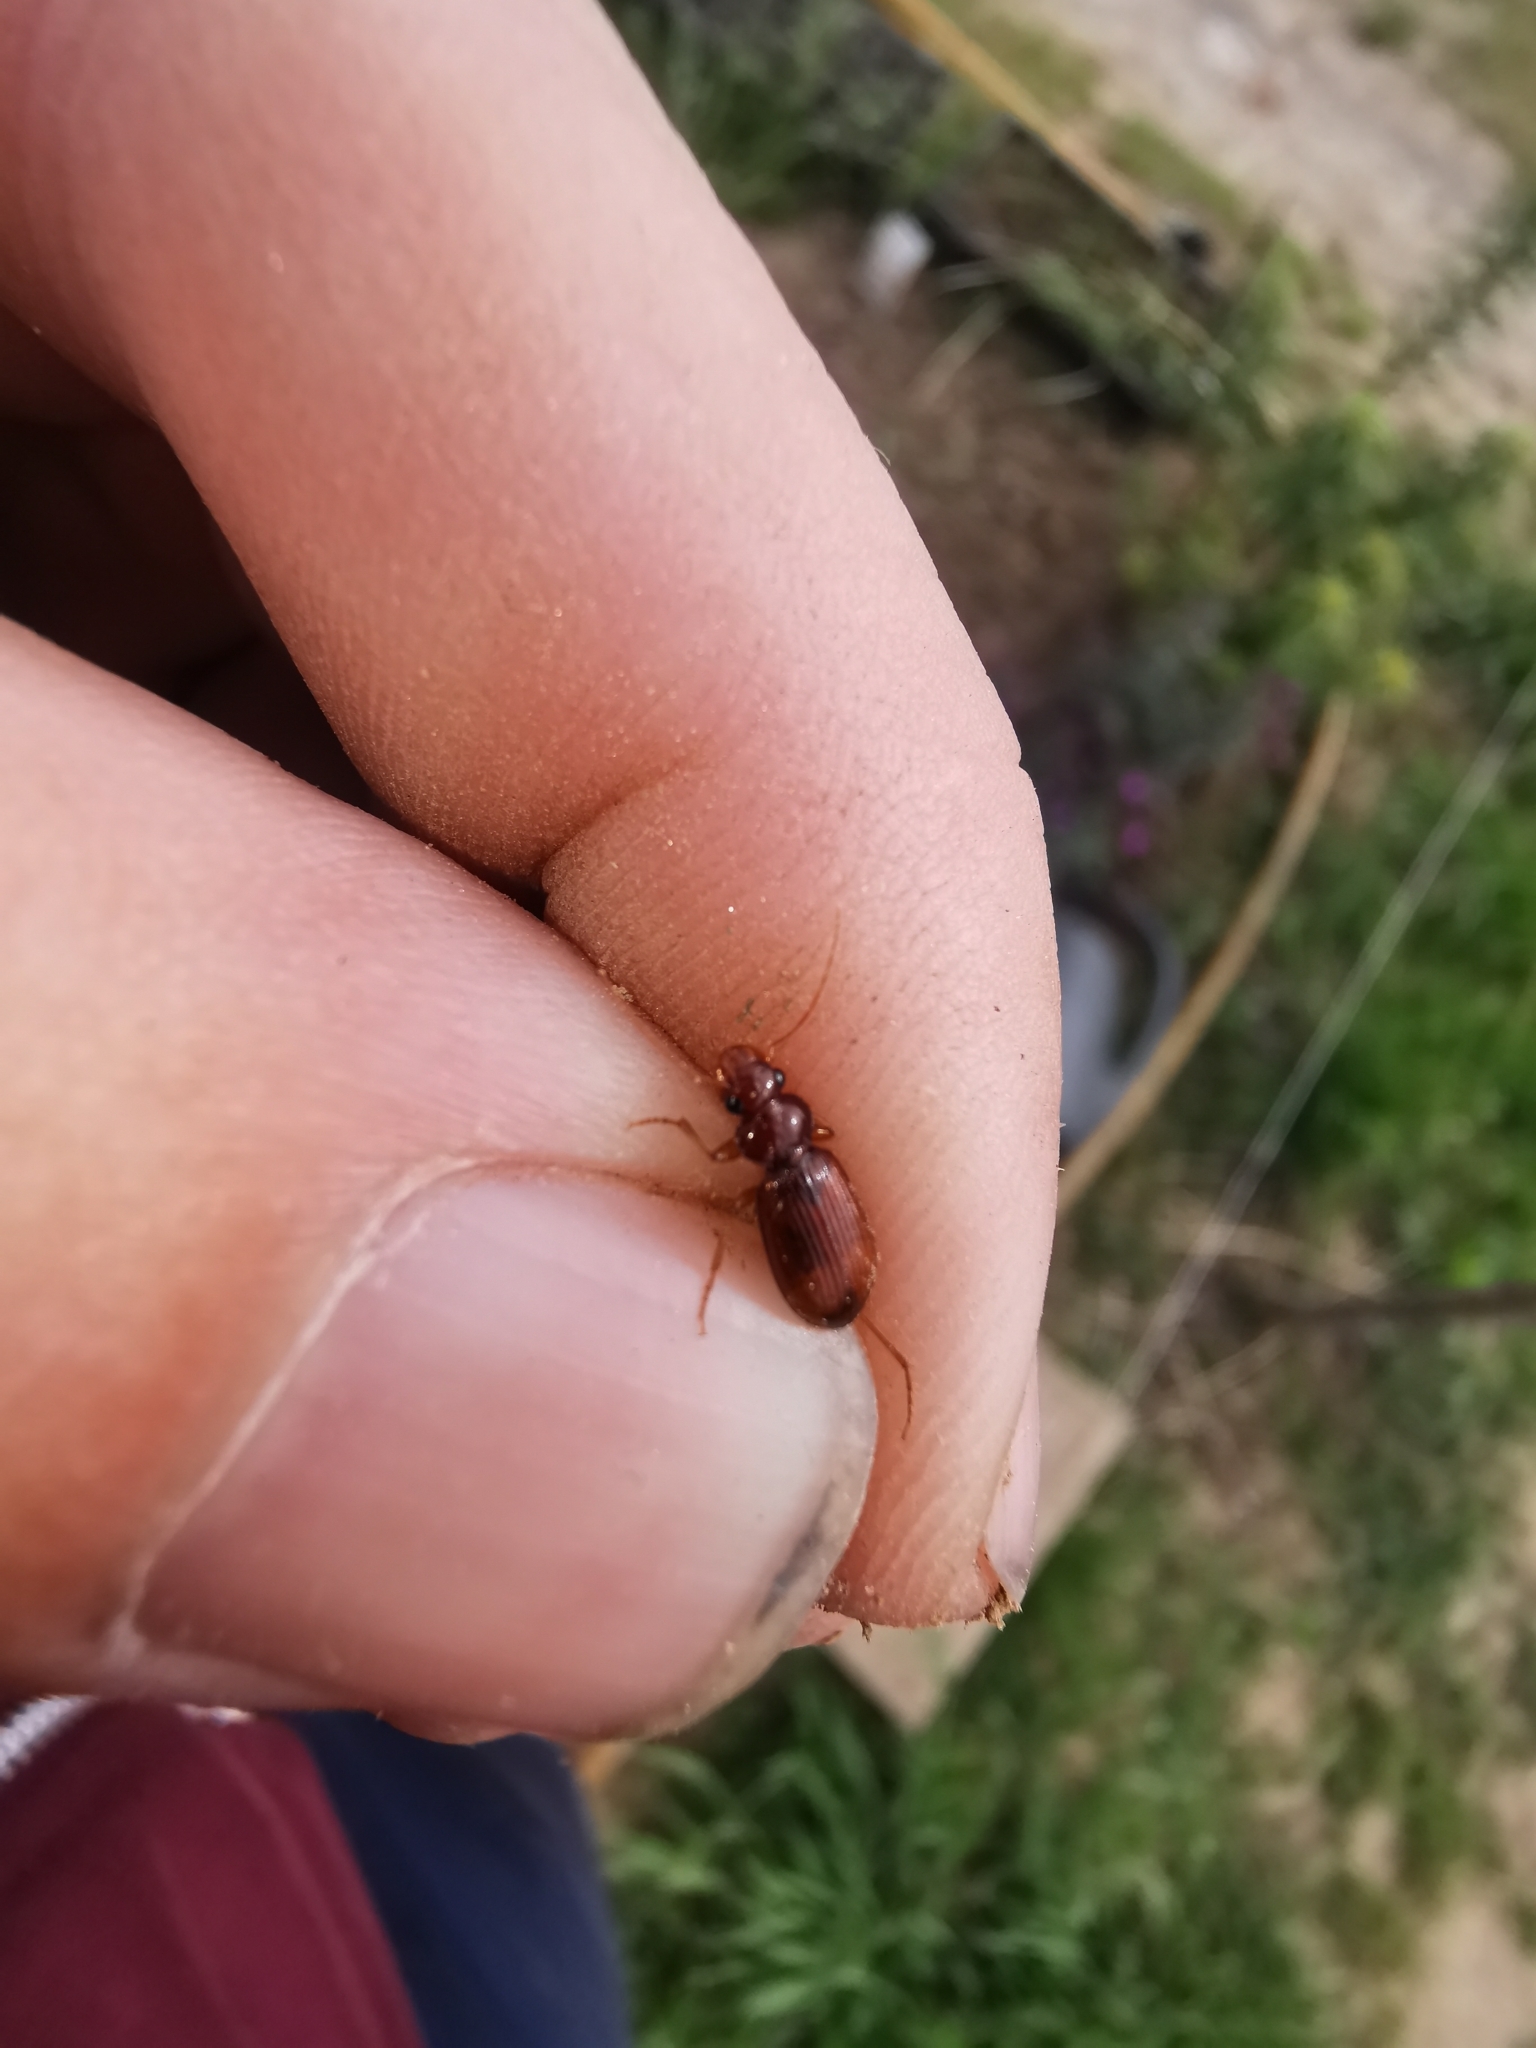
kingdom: Animalia
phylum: Arthropoda
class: Insecta
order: Coleoptera
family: Carabidae
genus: Leistus
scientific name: Leistus ferrugineus
